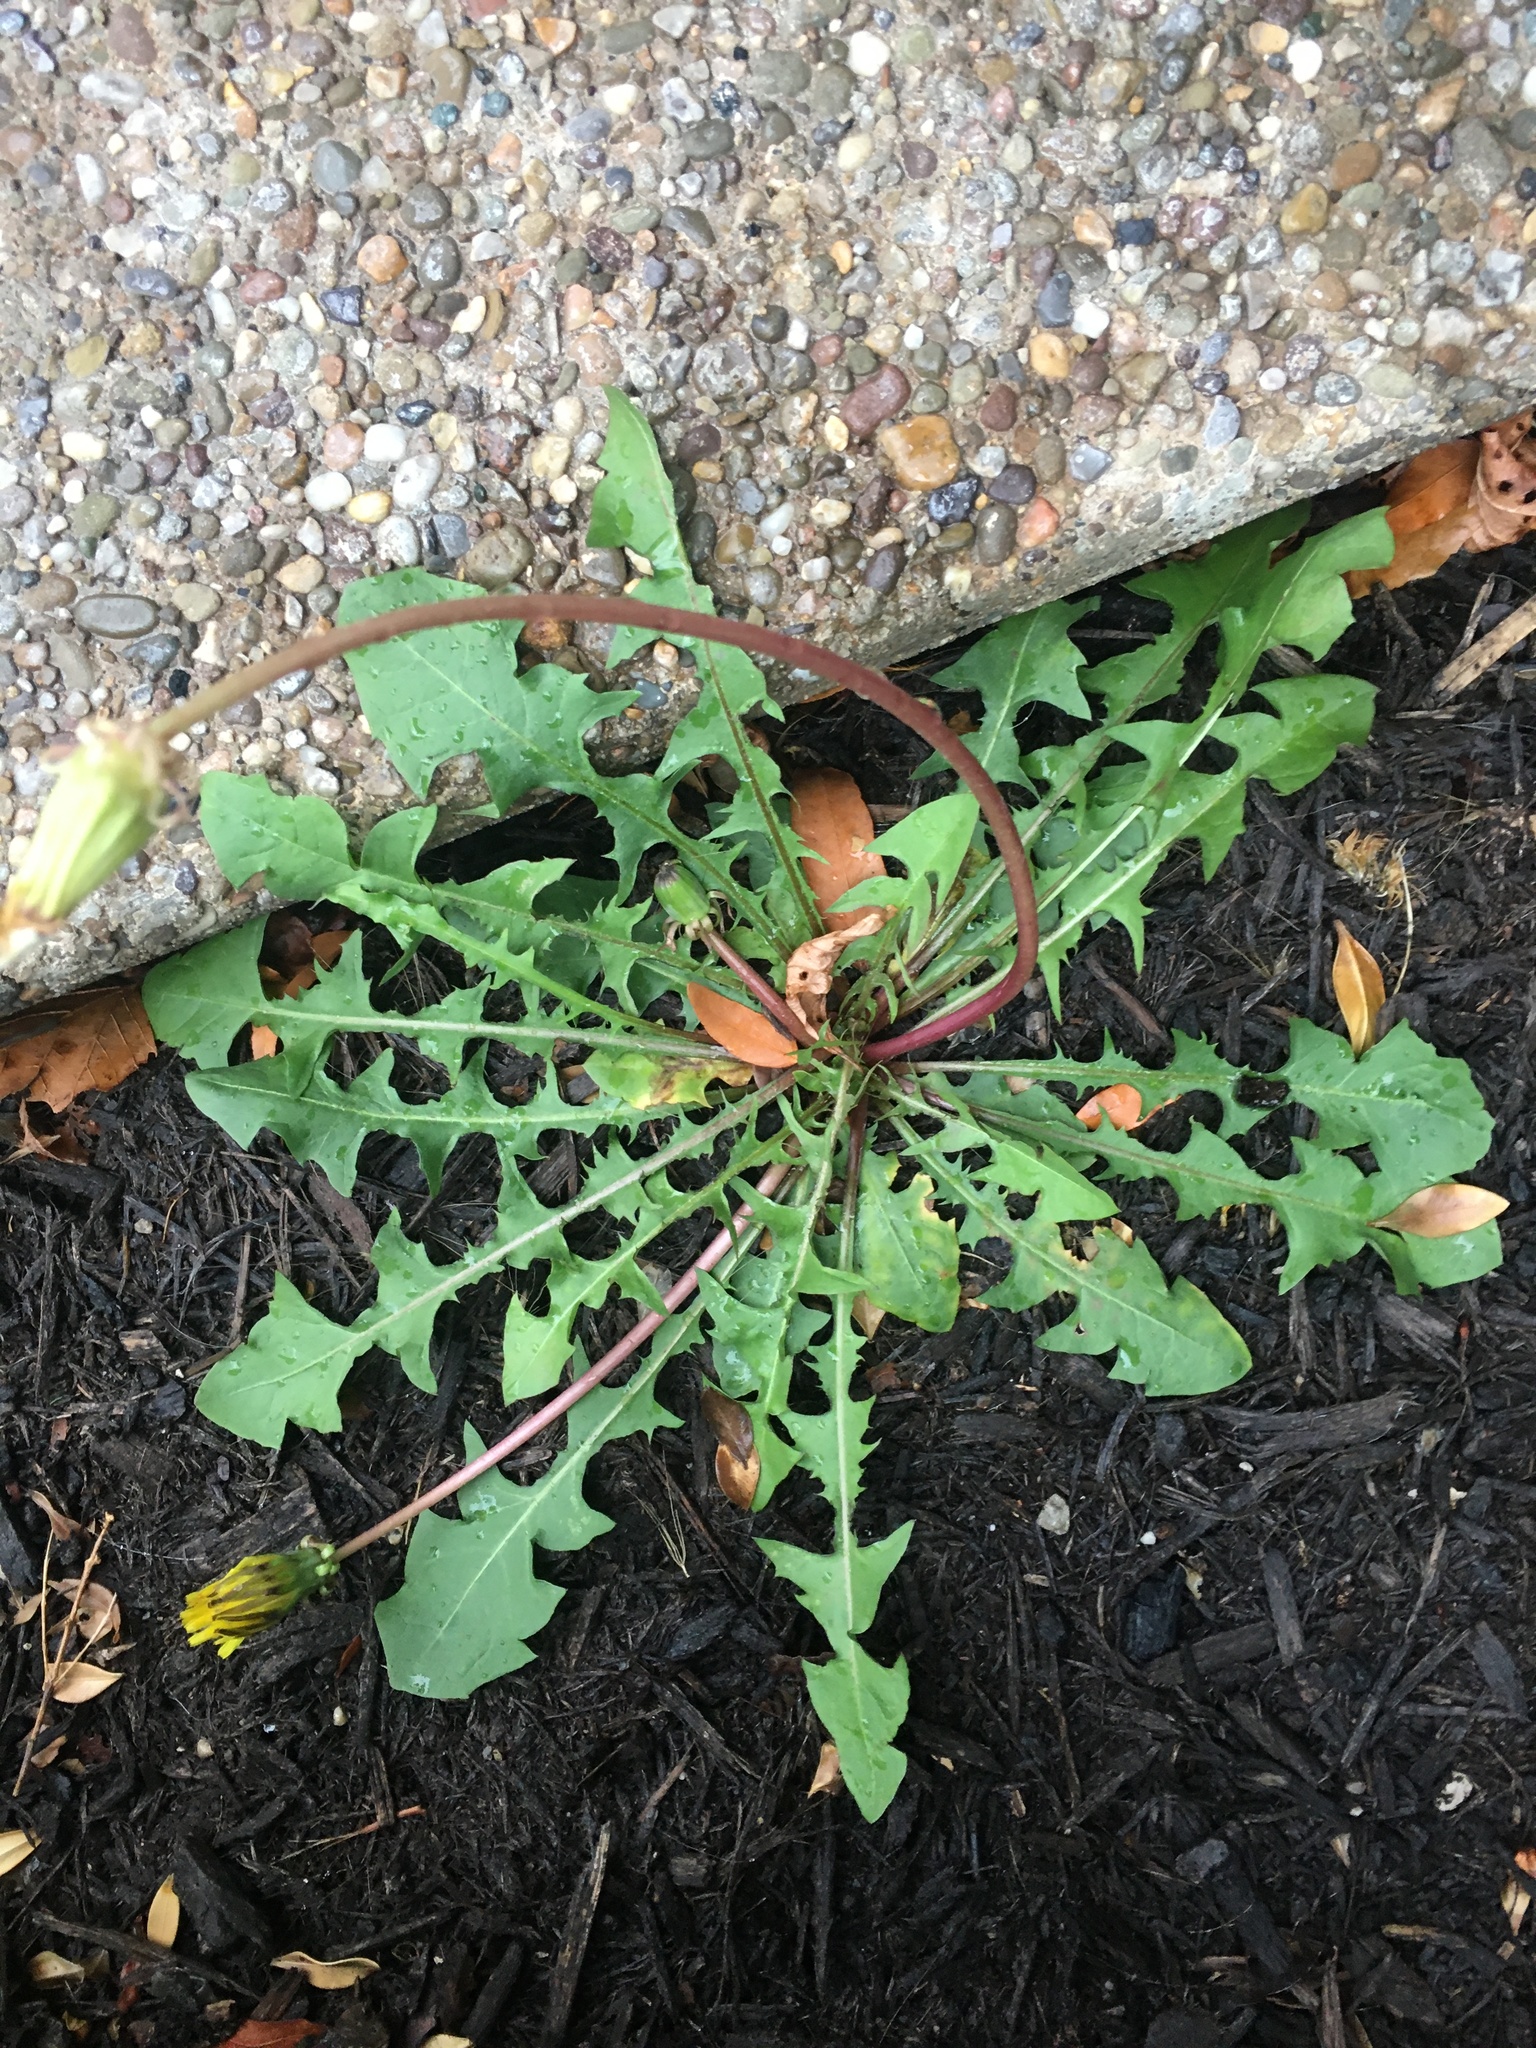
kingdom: Plantae
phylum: Tracheophyta
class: Magnoliopsida
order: Asterales
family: Asteraceae
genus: Taraxacum
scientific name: Taraxacum officinale
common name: Common dandelion
